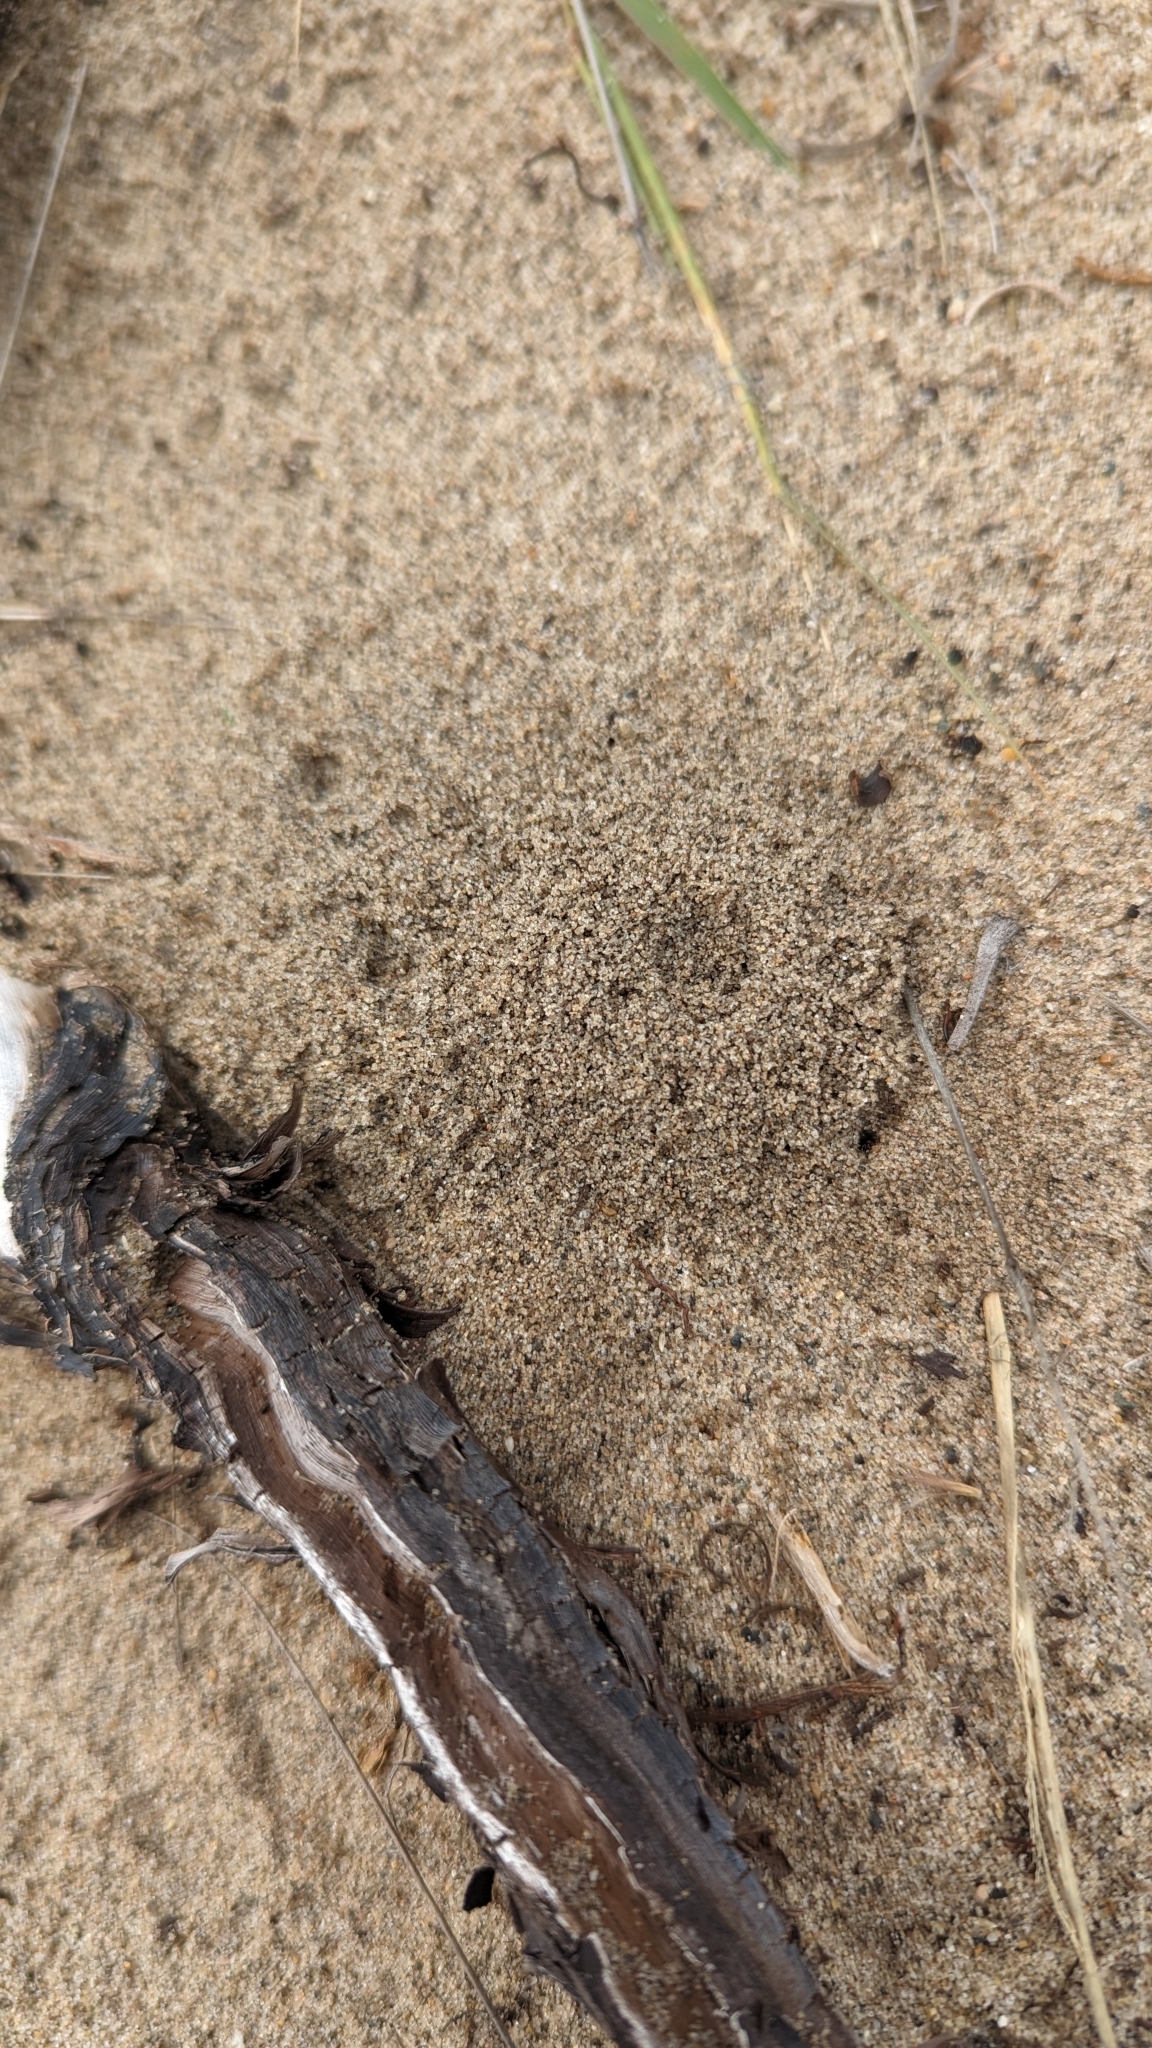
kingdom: Animalia
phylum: Arthropoda
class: Insecta
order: Hymenoptera
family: Formicidae
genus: Pheidole
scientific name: Pheidole bicarinata
